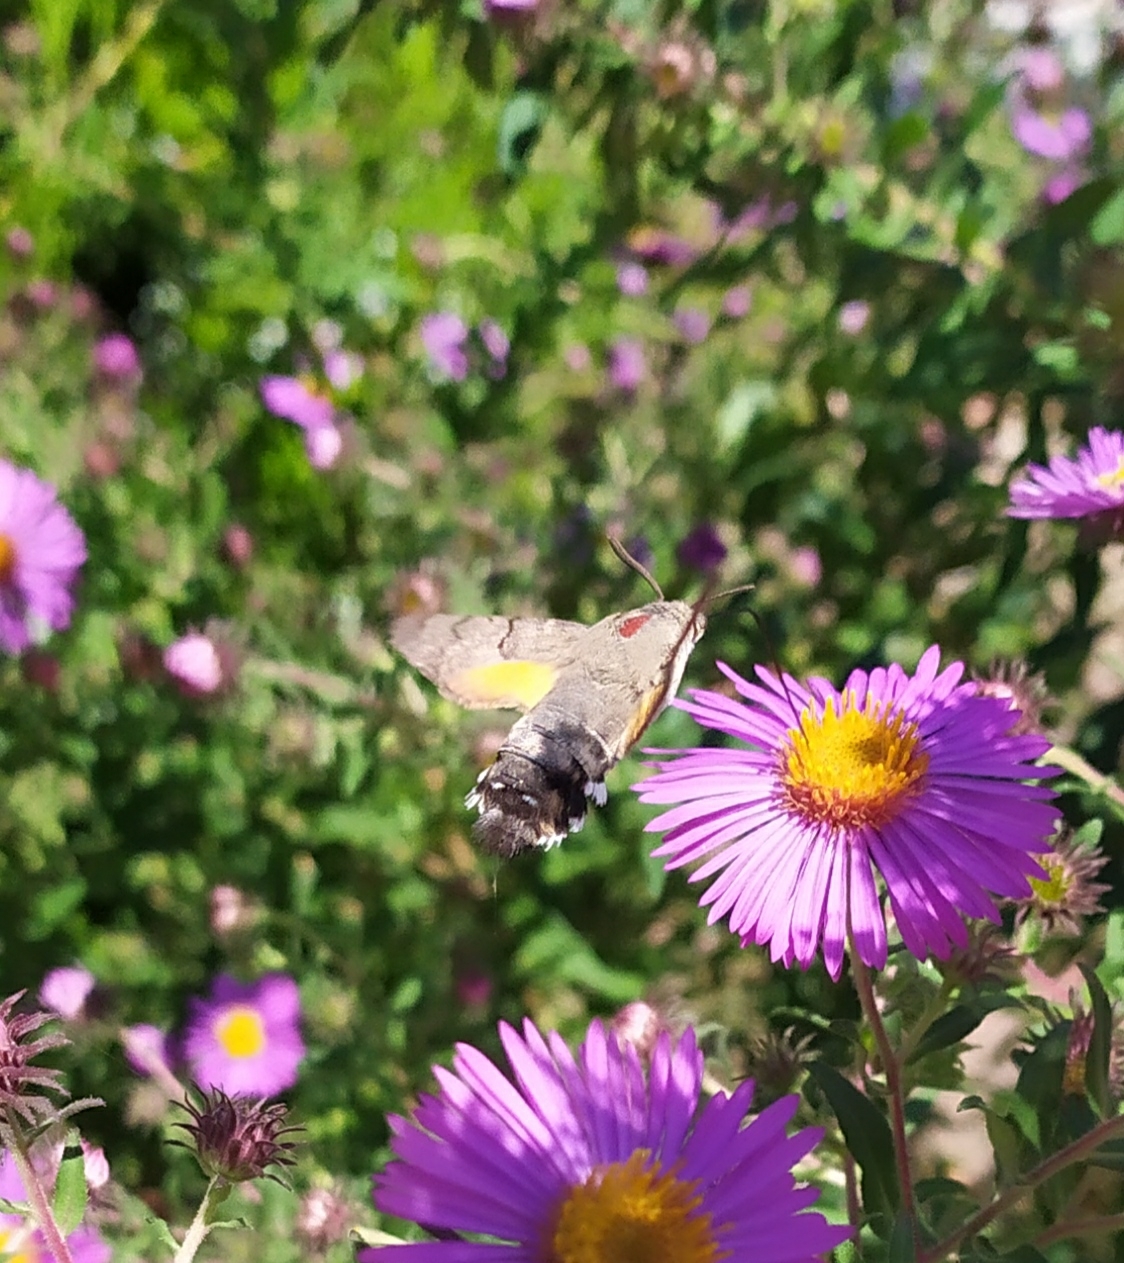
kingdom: Animalia
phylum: Arthropoda
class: Insecta
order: Lepidoptera
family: Sphingidae
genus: Macroglossum
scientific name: Macroglossum stellatarum
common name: Humming-bird hawk-moth
